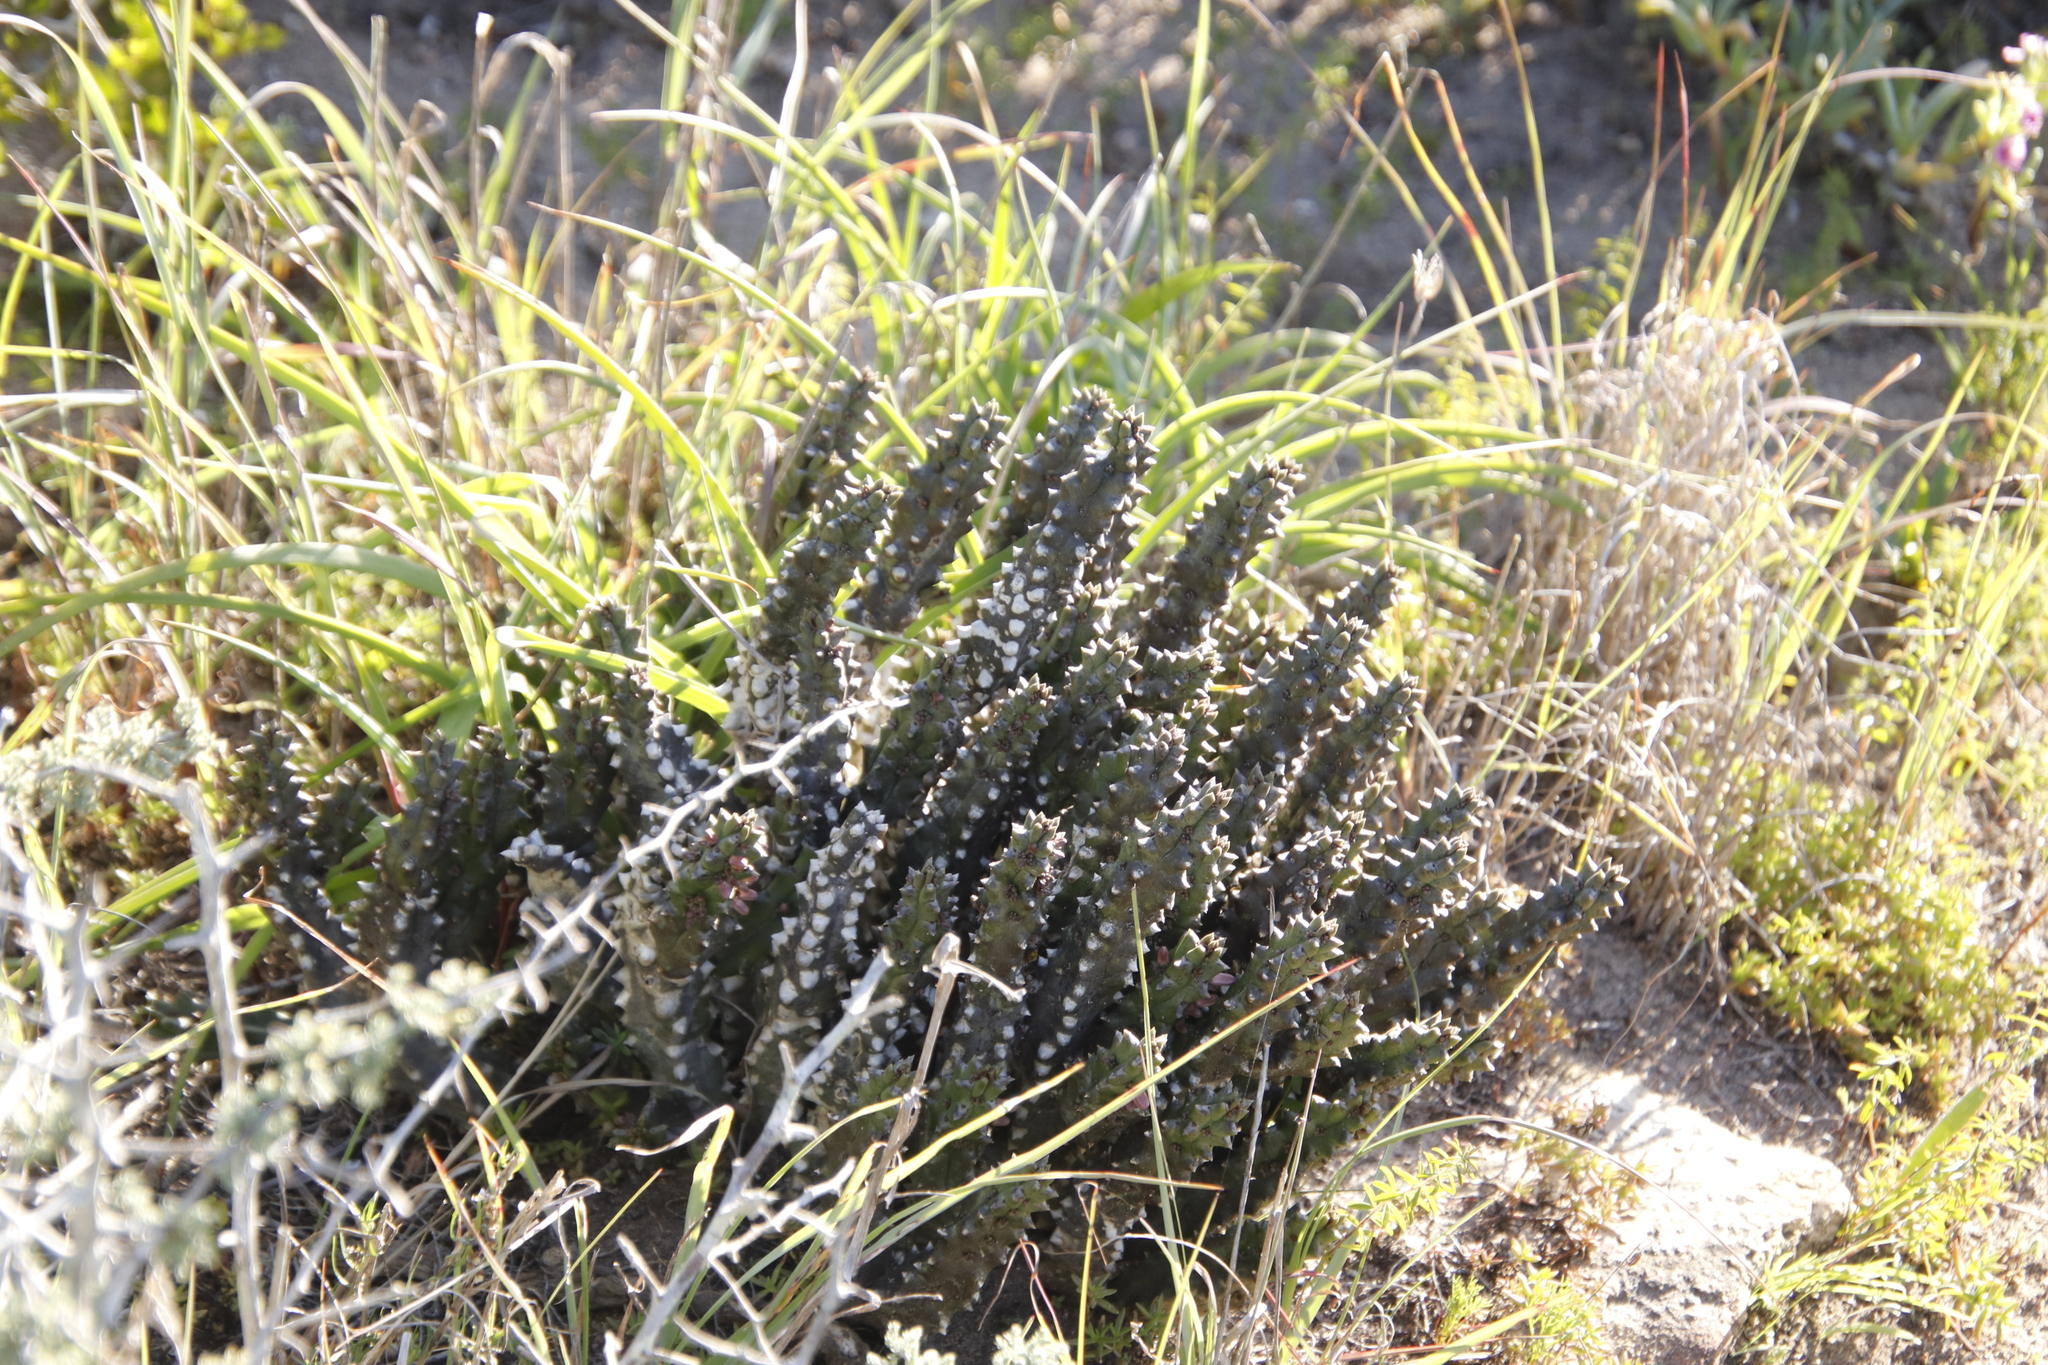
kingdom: Plantae
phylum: Tracheophyta
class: Magnoliopsida
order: Gentianales
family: Apocynaceae
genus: Ceropegia
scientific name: Ceropegia incarnata
